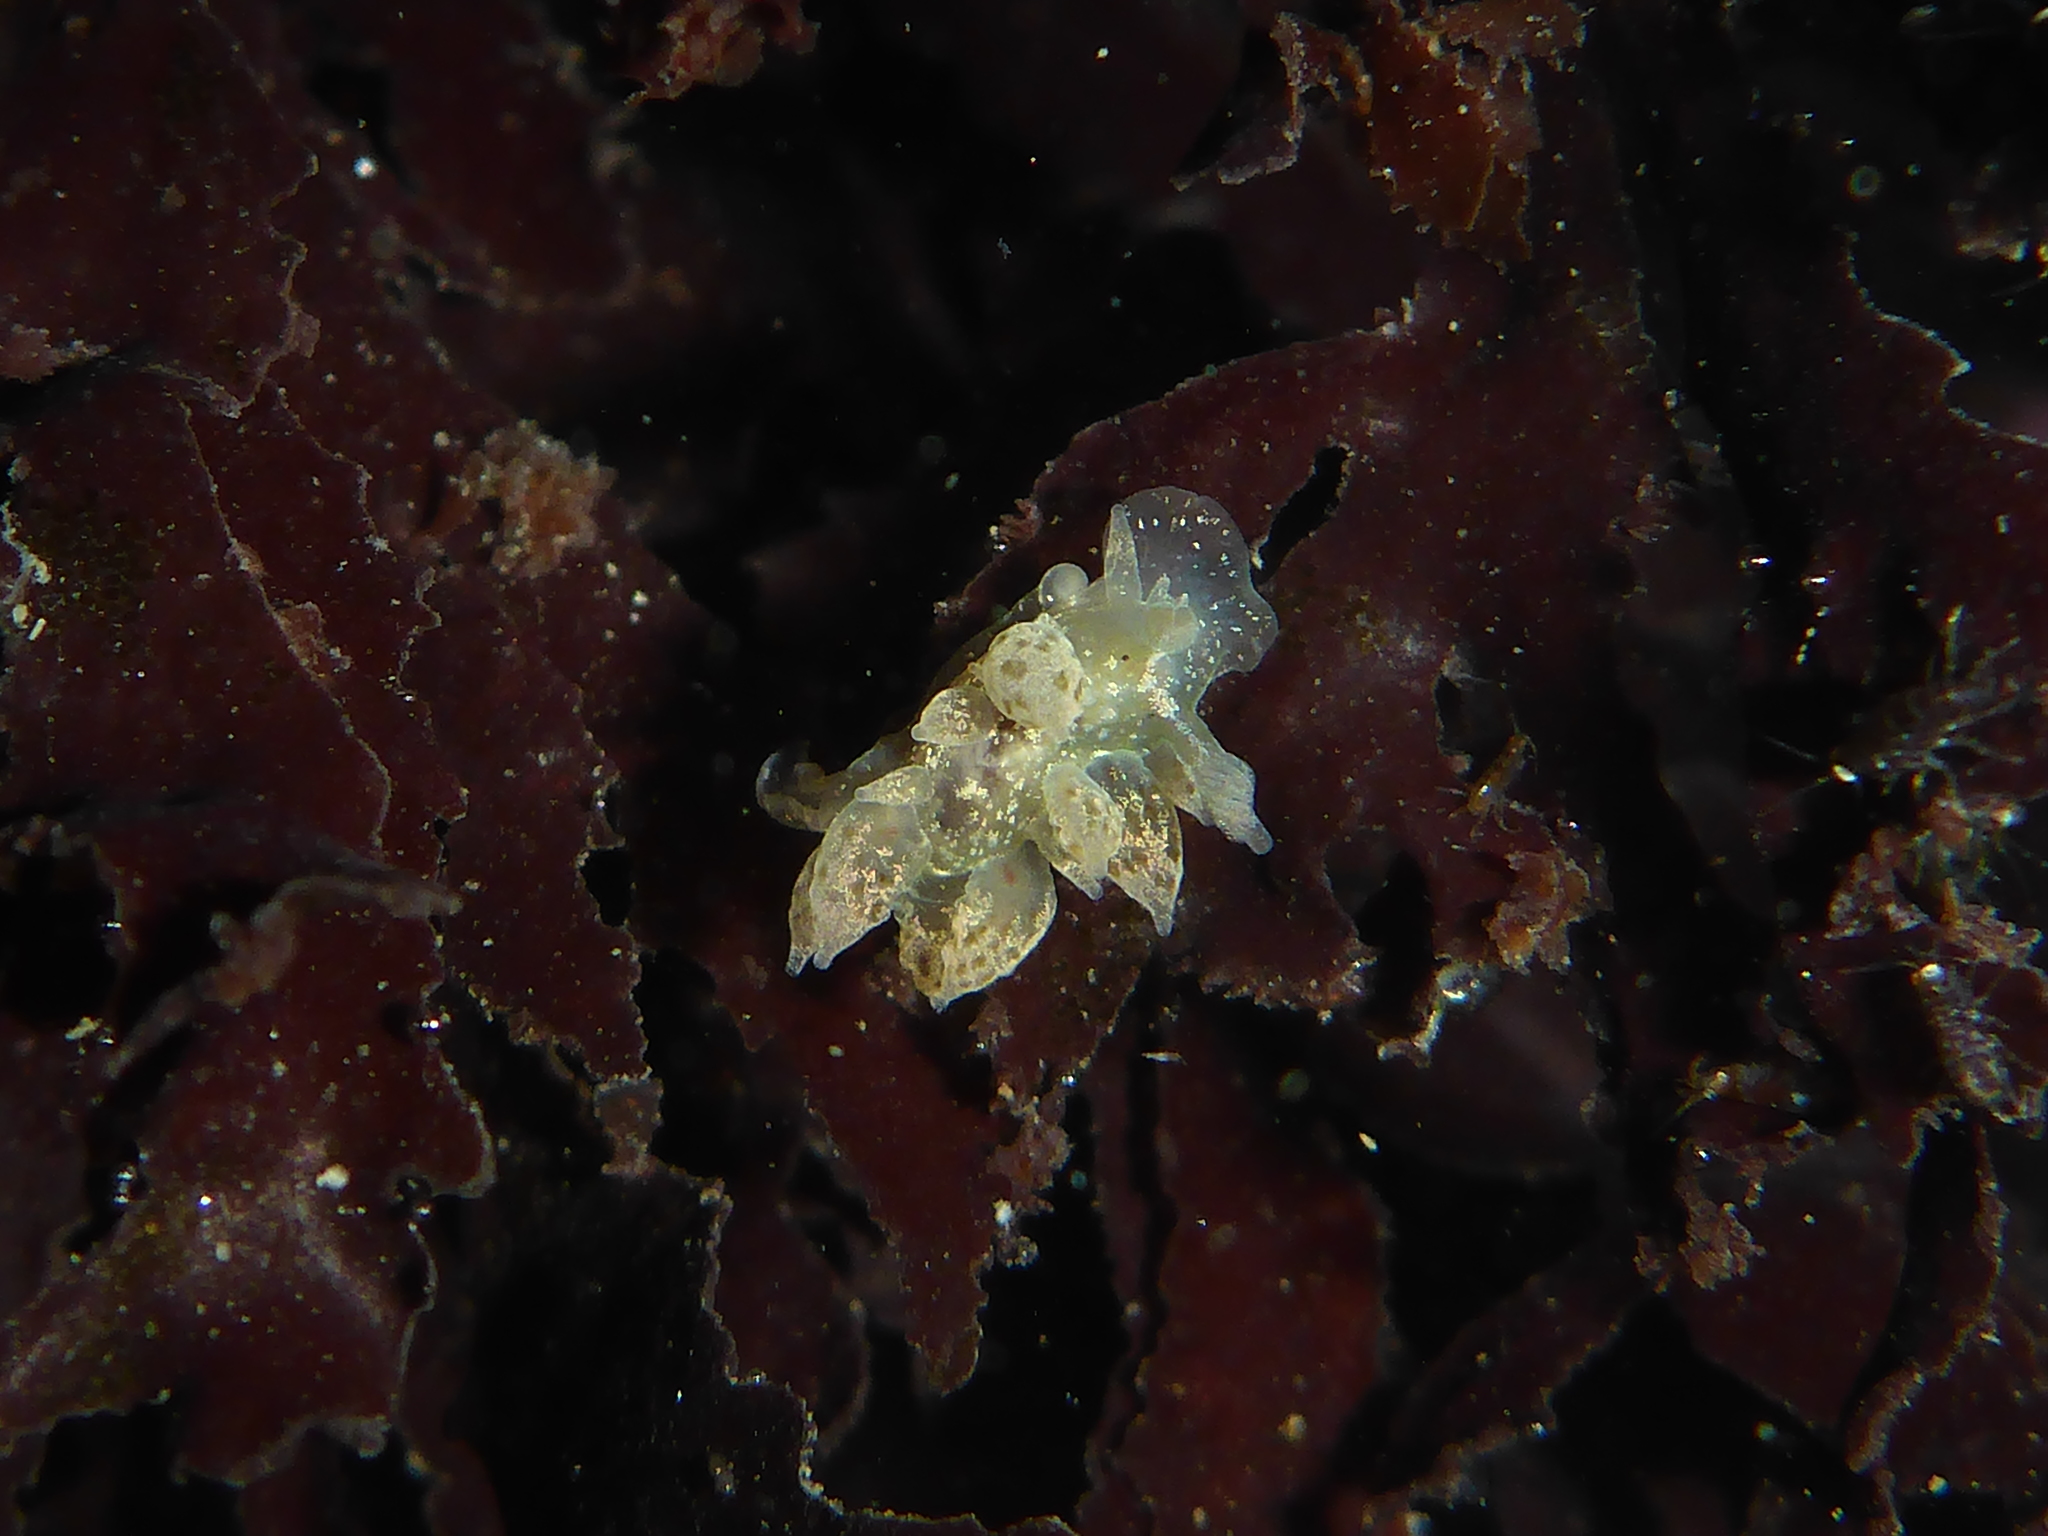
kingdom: Animalia
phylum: Mollusca
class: Gastropoda
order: Nudibranchia
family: Dironidae
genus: Dirona
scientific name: Dirona picta
